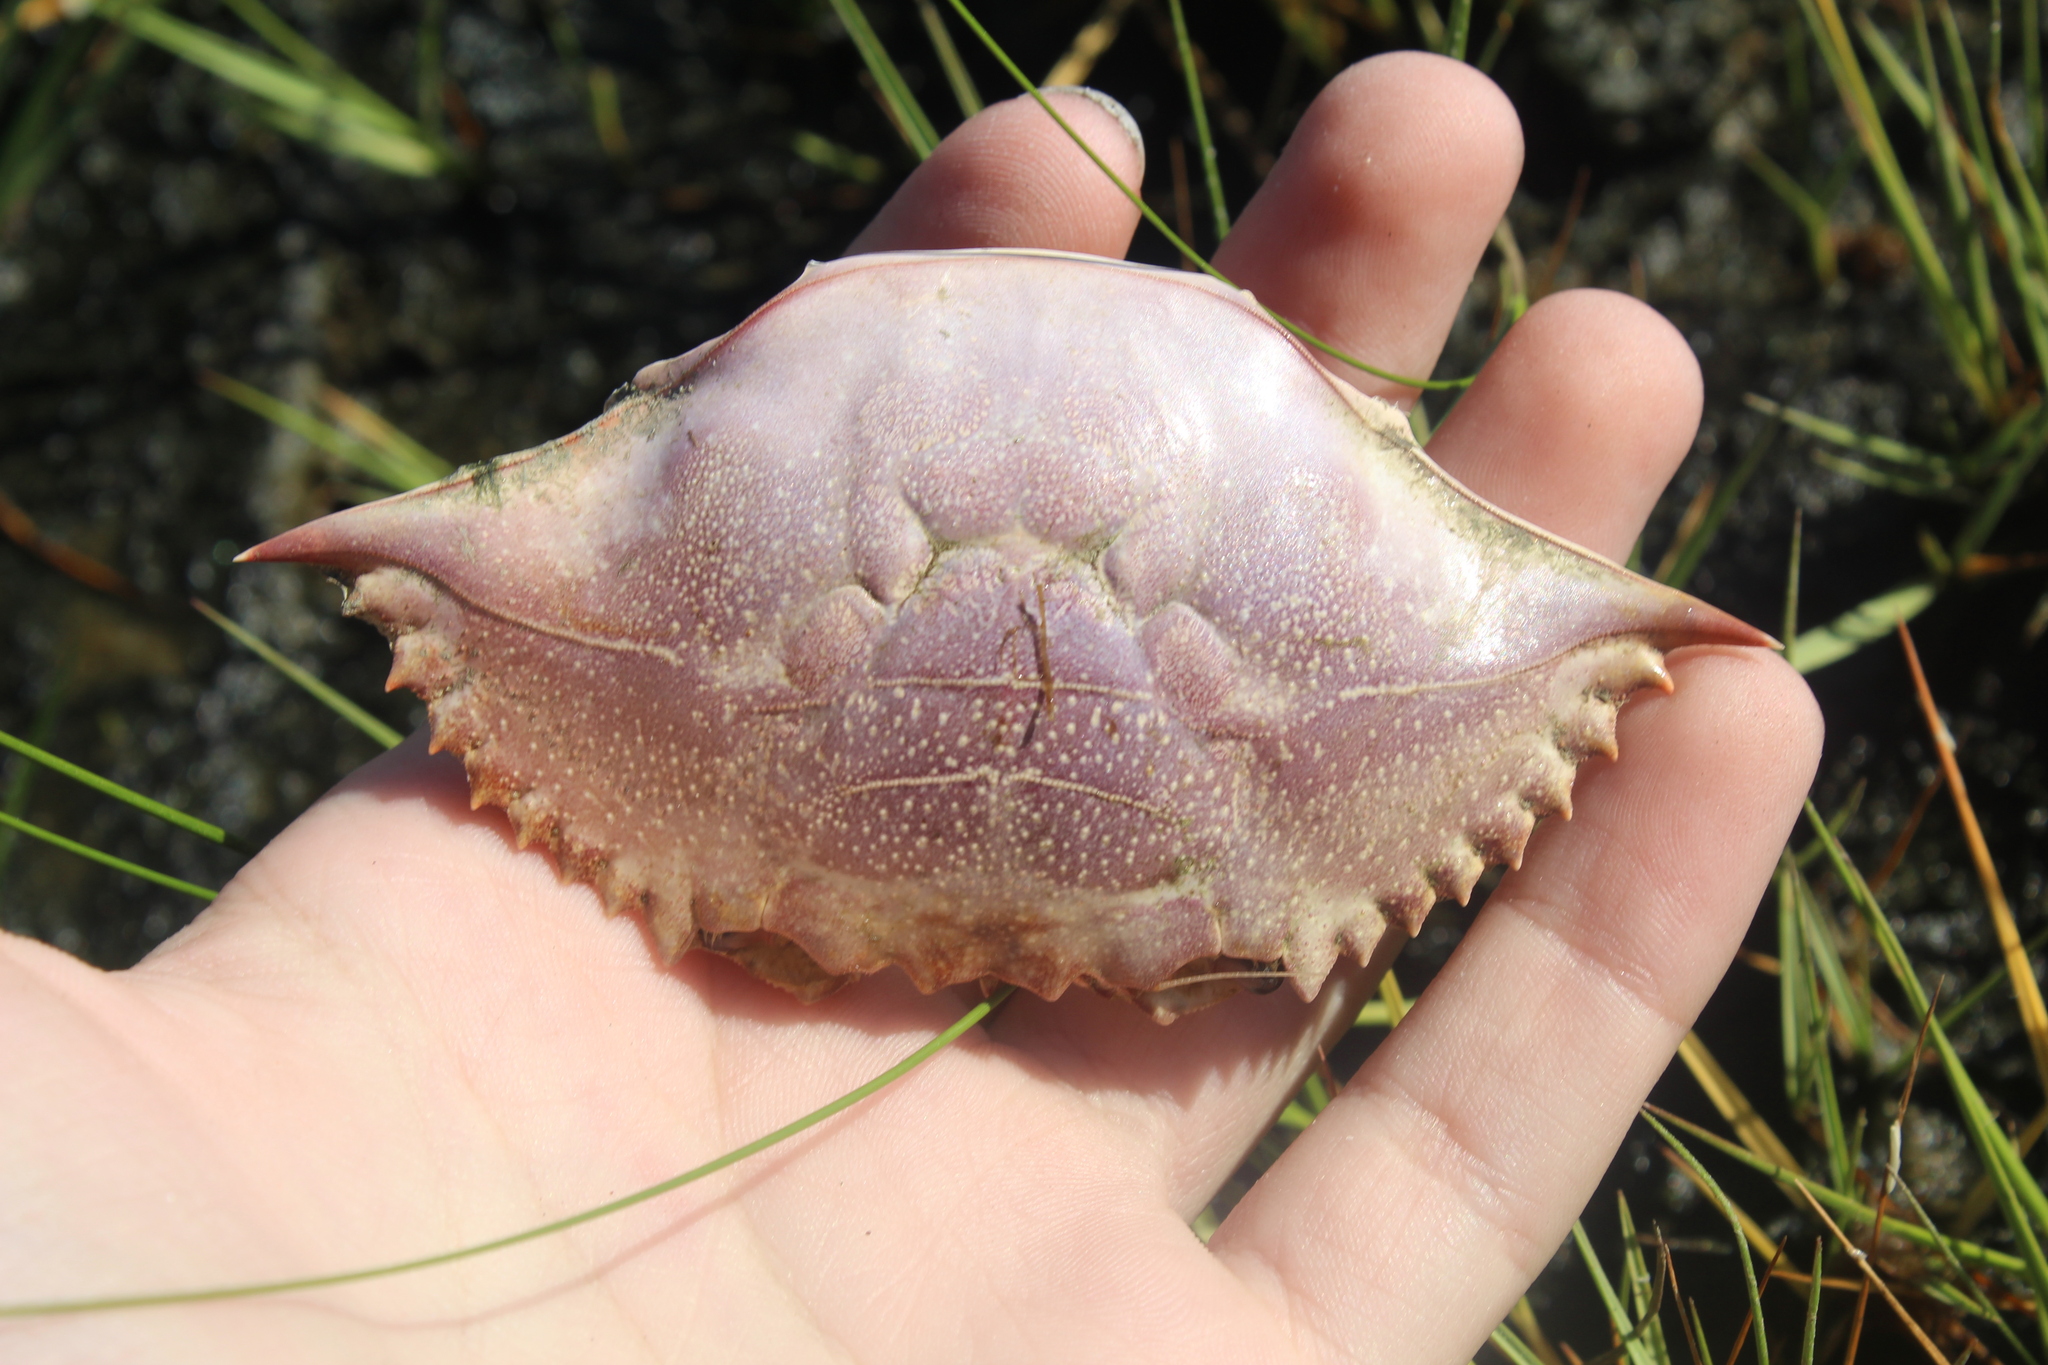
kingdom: Animalia
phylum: Arthropoda
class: Malacostraca
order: Decapoda
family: Portunidae
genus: Callinectes
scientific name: Callinectes sapidus
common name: Blue crab
